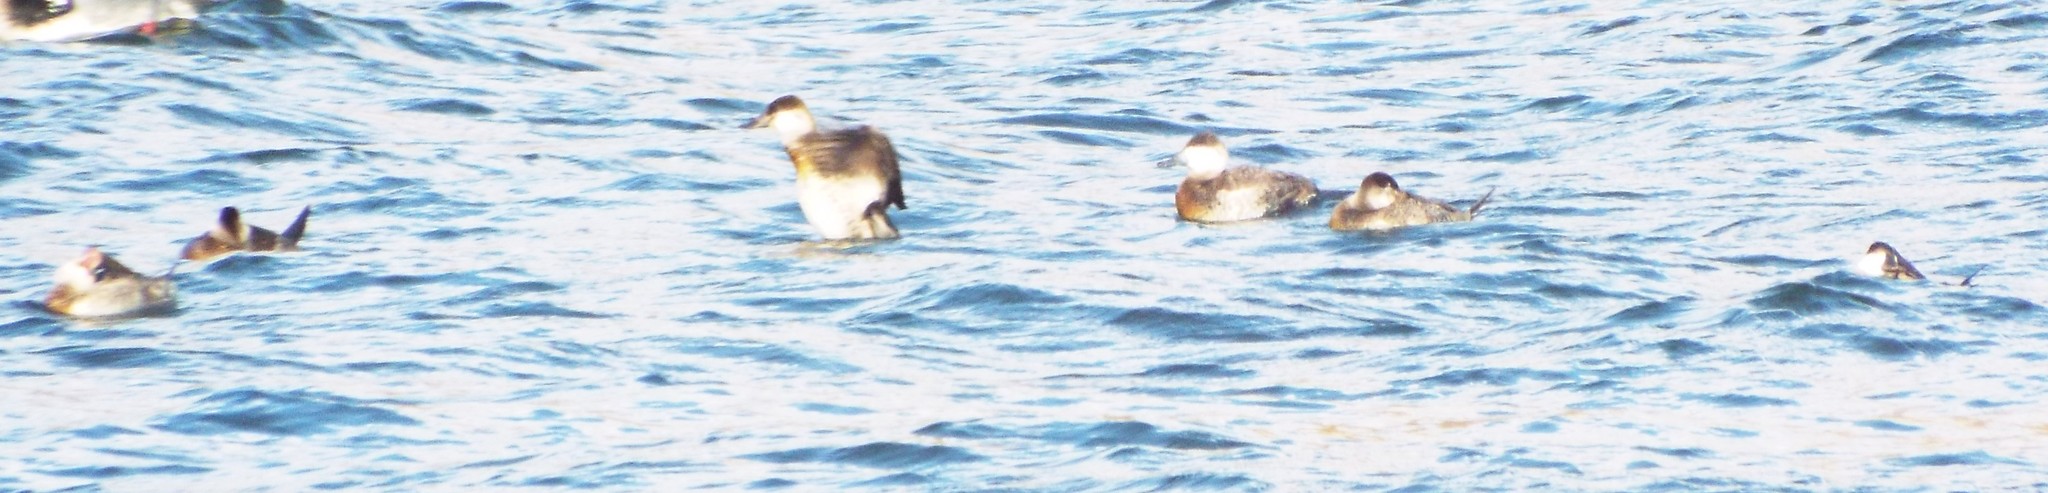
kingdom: Animalia
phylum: Chordata
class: Aves
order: Anseriformes
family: Anatidae
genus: Oxyura
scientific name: Oxyura jamaicensis
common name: Ruddy duck
